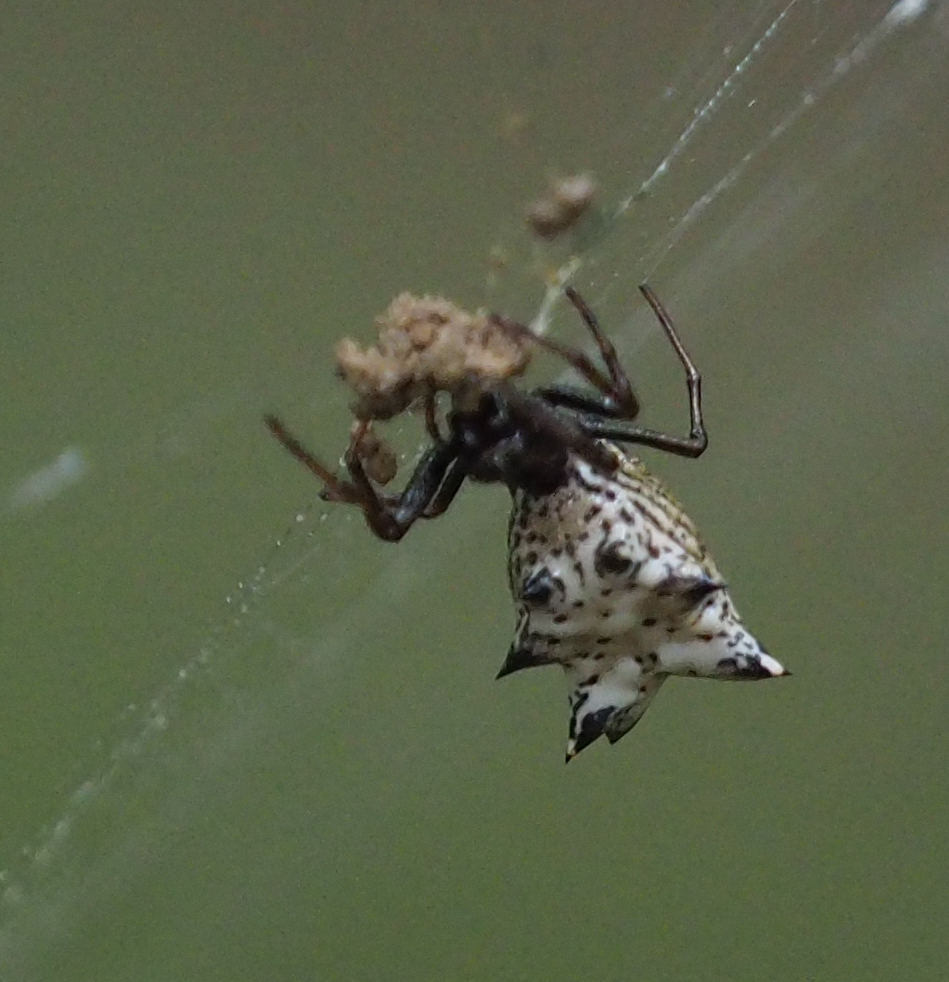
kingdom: Animalia
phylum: Arthropoda
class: Arachnida
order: Araneae
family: Araneidae
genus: Micrathena
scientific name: Micrathena gracilis
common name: Orb weavers
